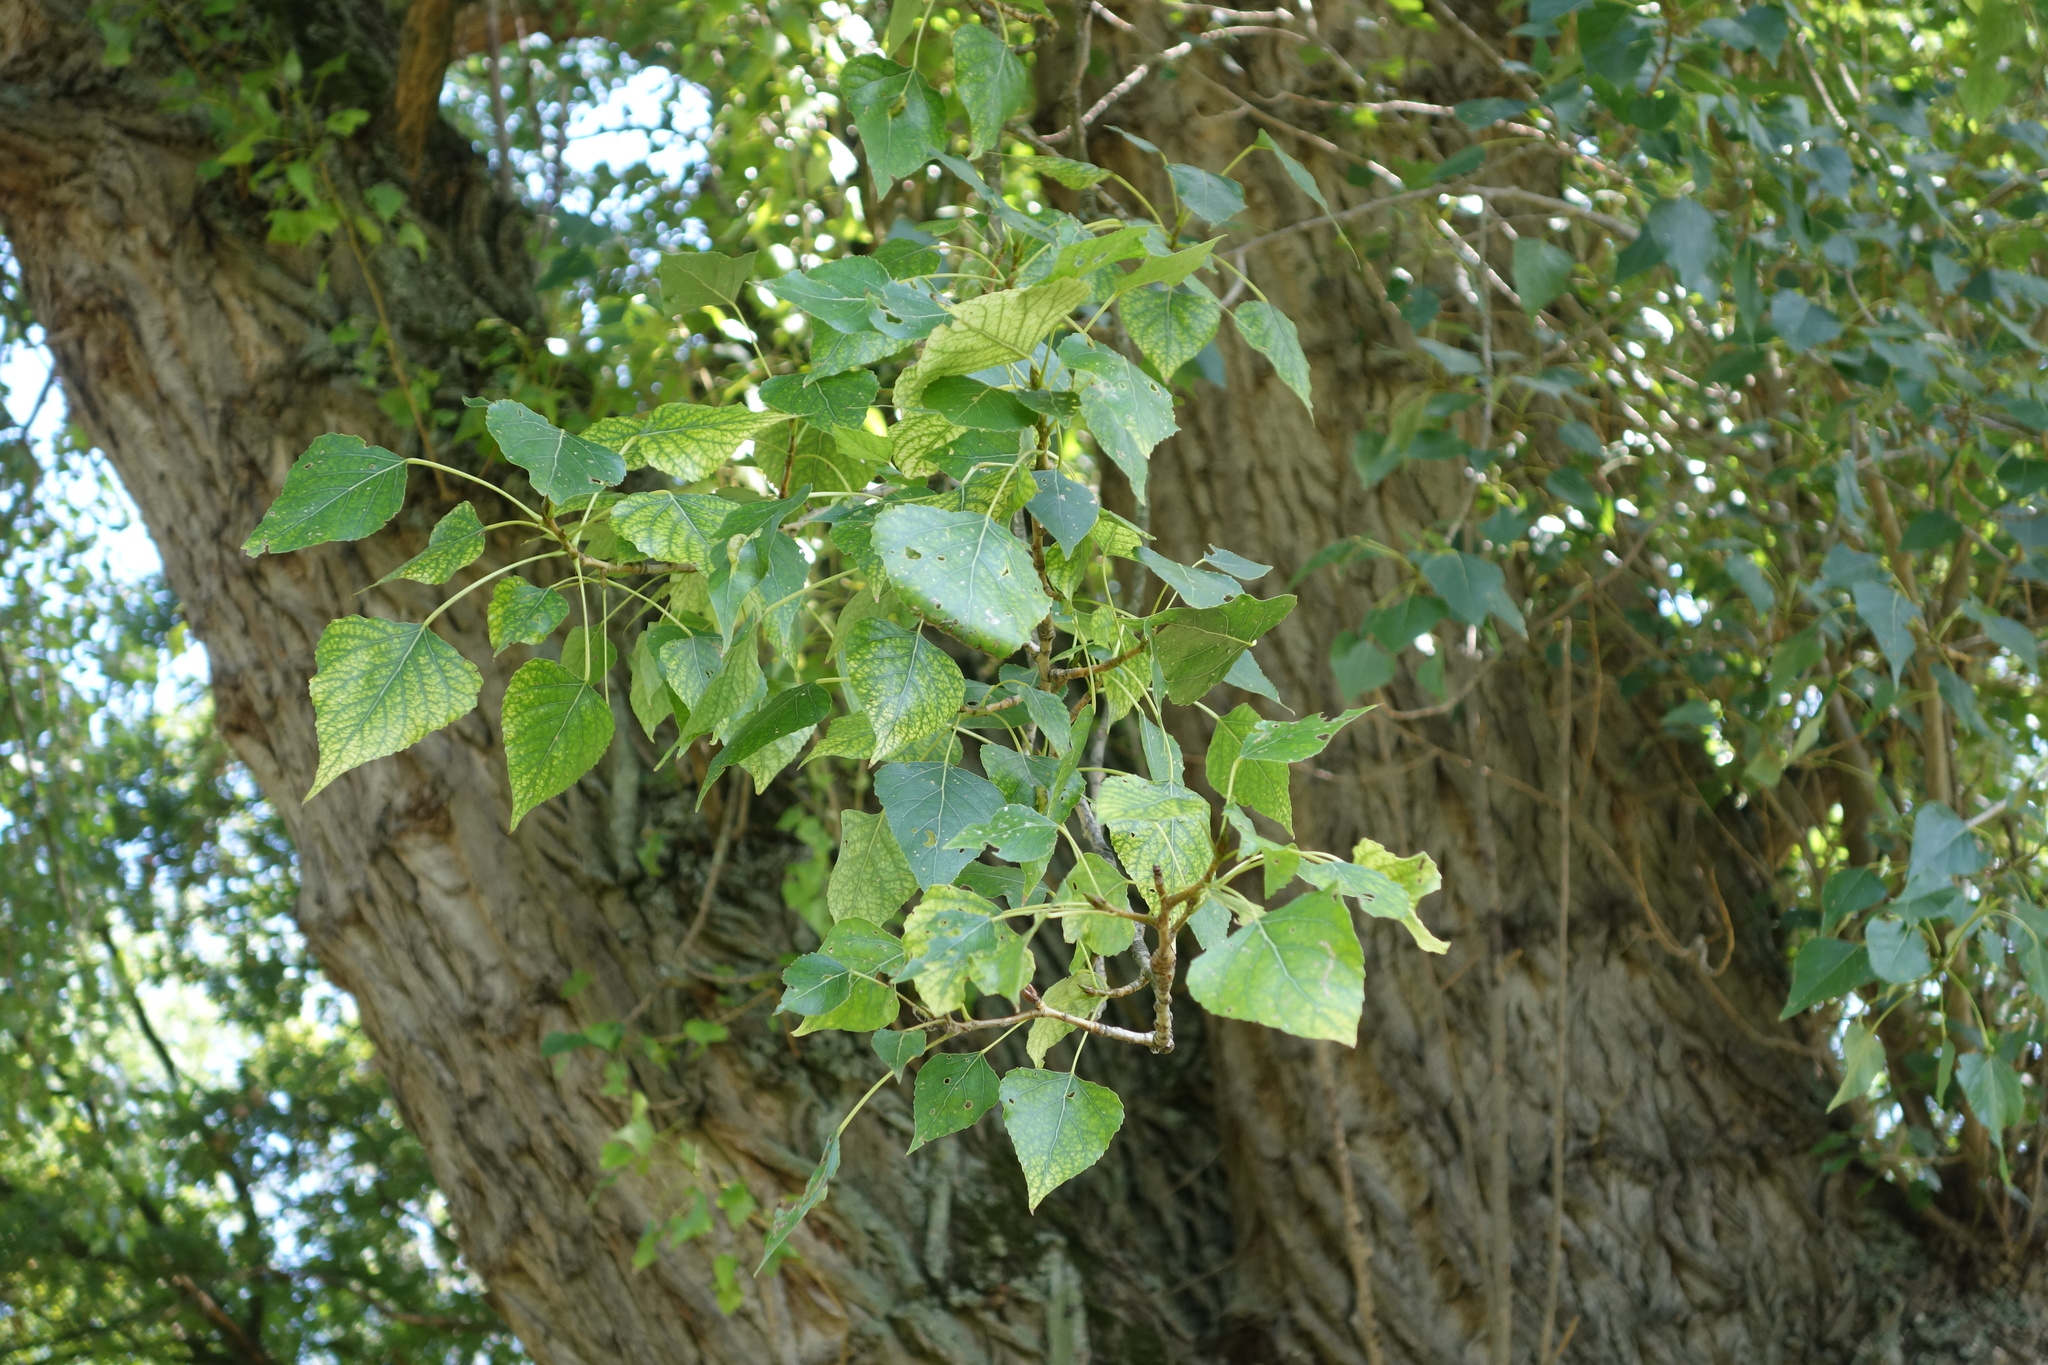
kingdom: Plantae
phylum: Tracheophyta
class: Magnoliopsida
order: Malpighiales
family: Salicaceae
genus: Populus
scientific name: Populus nigra
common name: Black poplar
